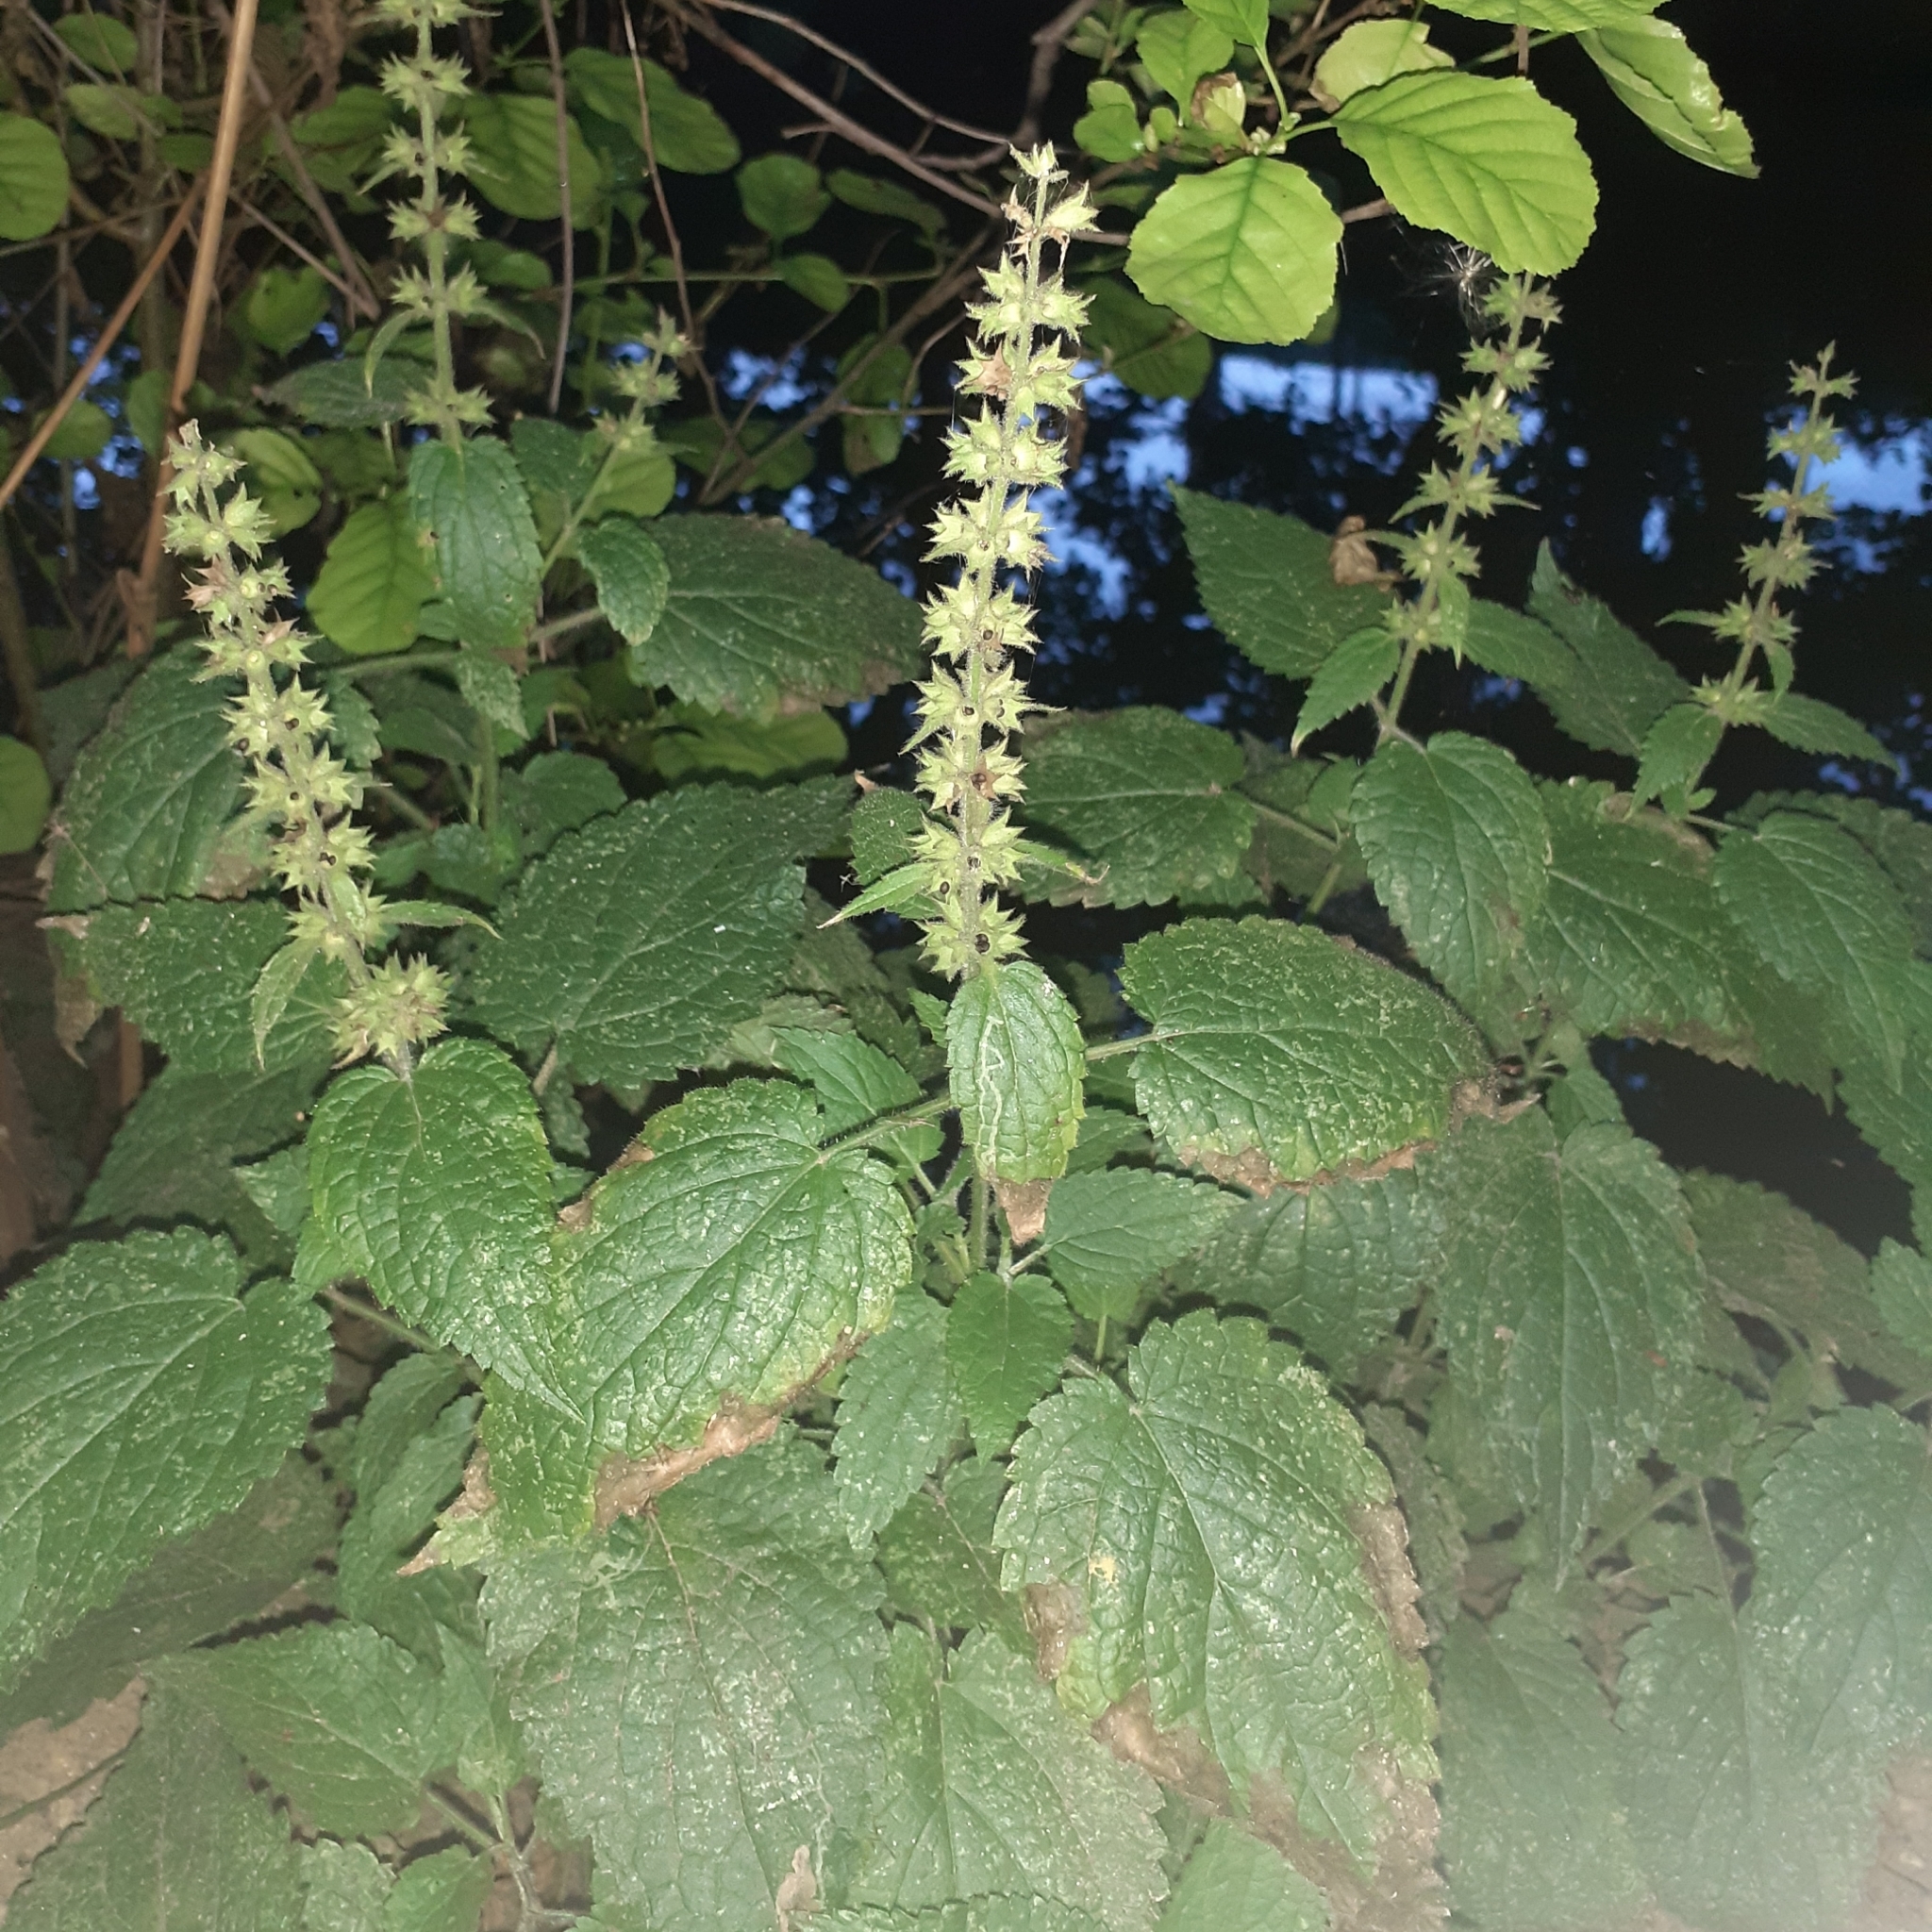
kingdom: Plantae
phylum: Tracheophyta
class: Magnoliopsida
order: Lamiales
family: Lamiaceae
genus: Stachys
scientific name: Stachys sylvatica
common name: Hedge woundwort
